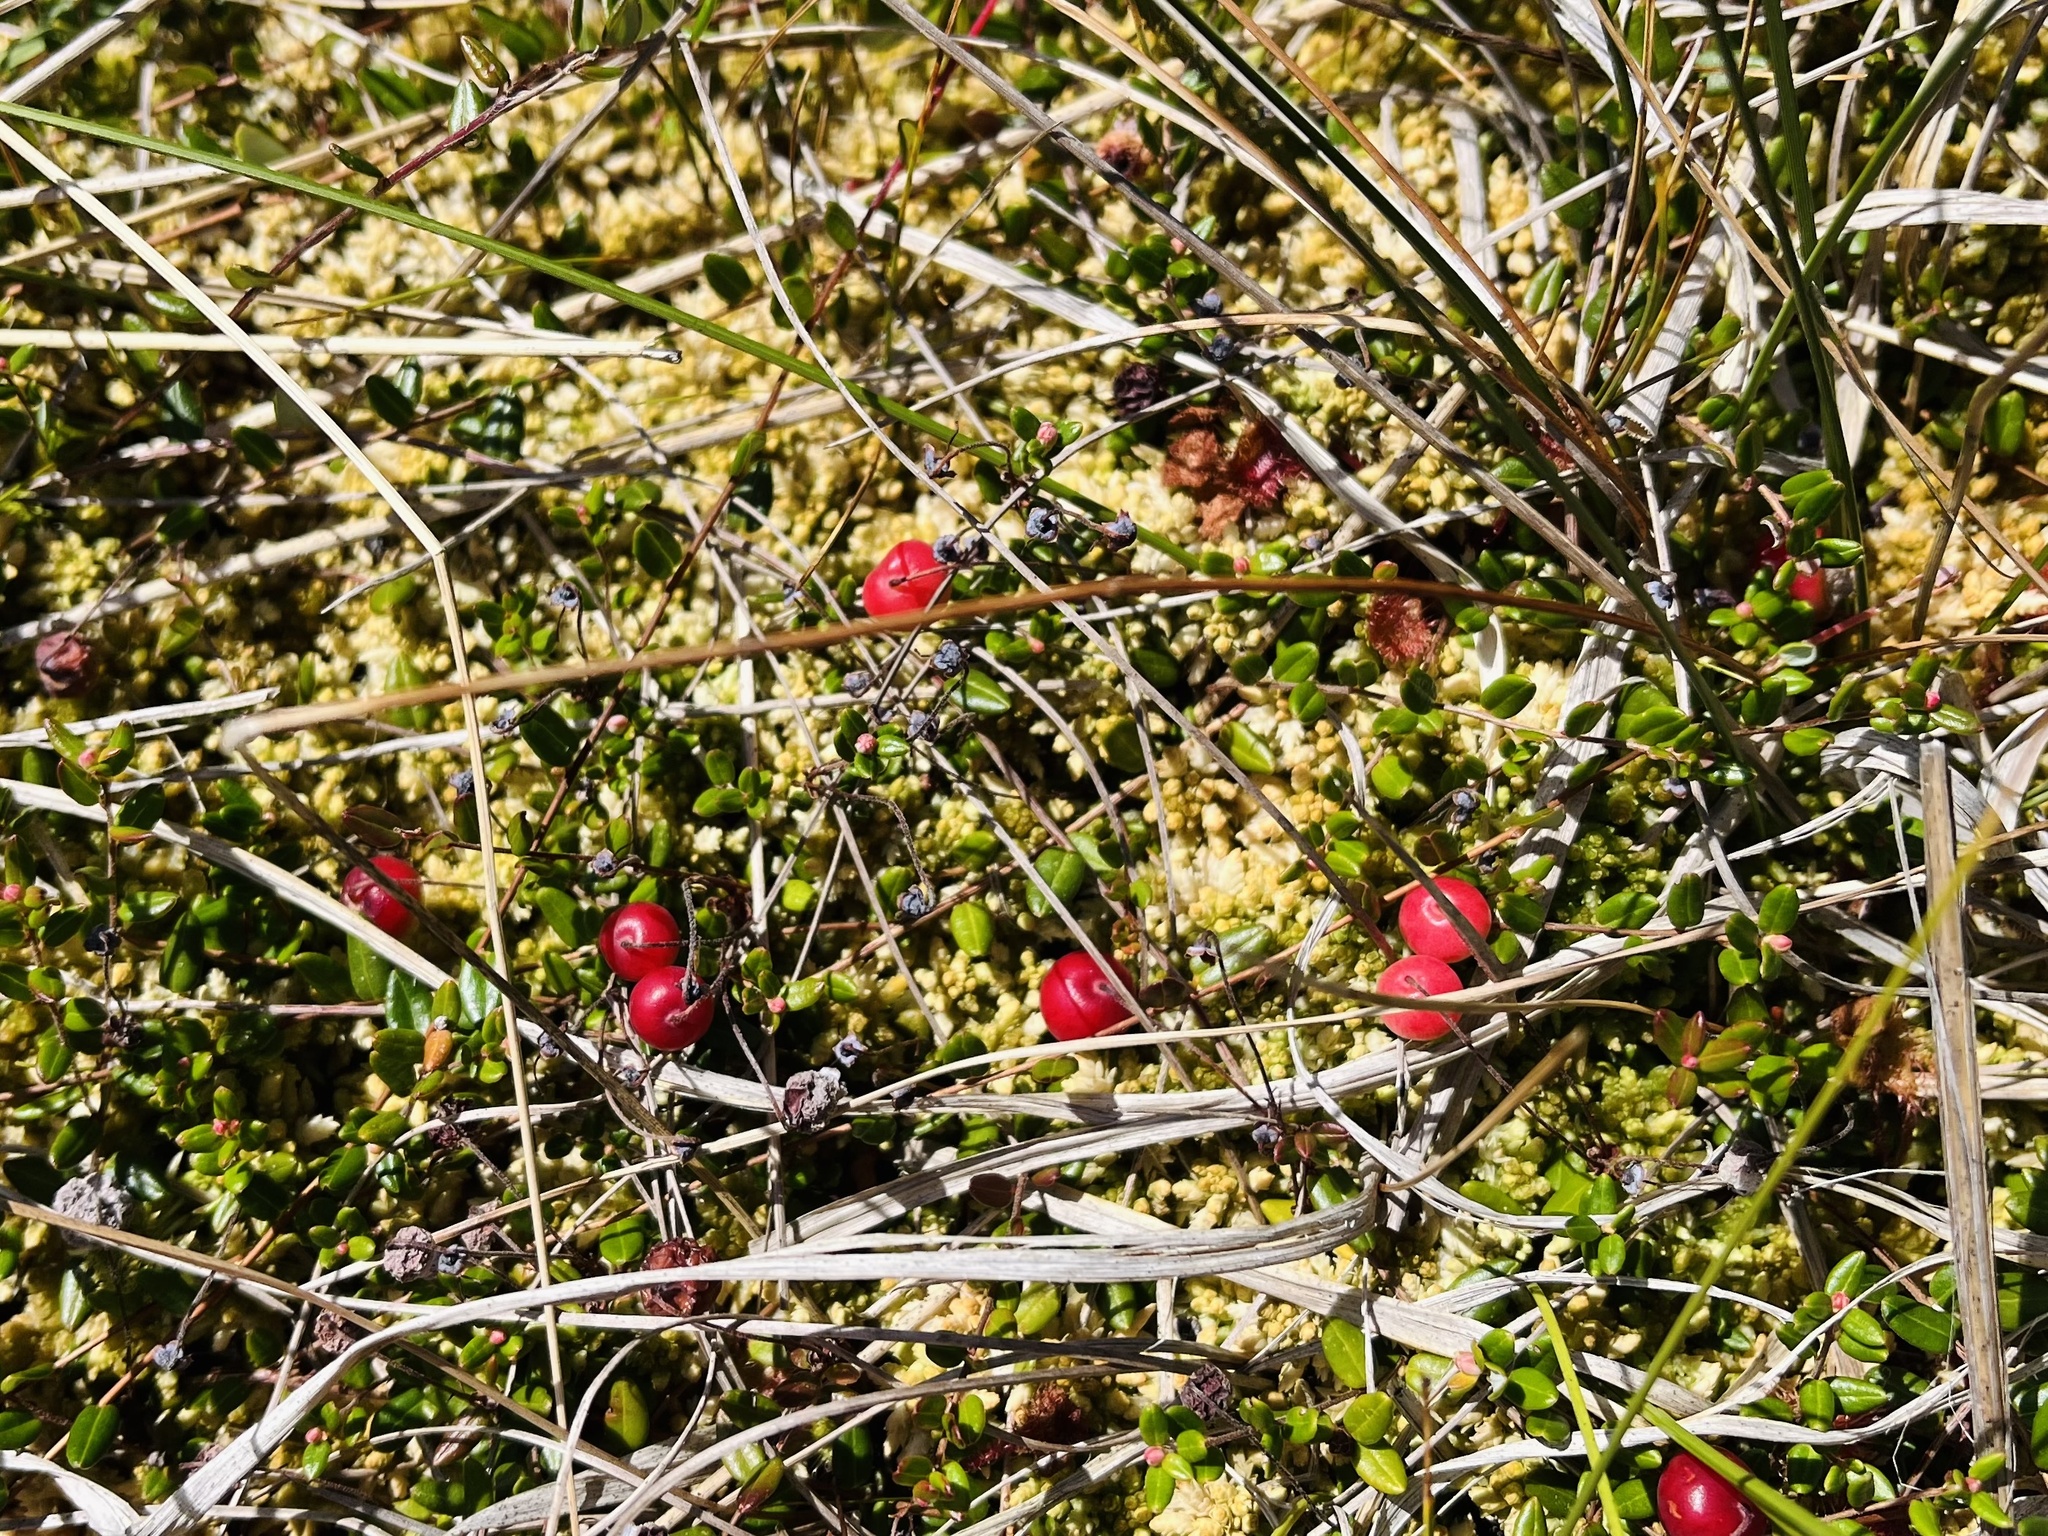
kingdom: Plantae
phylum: Tracheophyta
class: Magnoliopsida
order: Ericales
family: Ericaceae
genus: Vaccinium
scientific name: Vaccinium oxycoccos
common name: Cranberry
